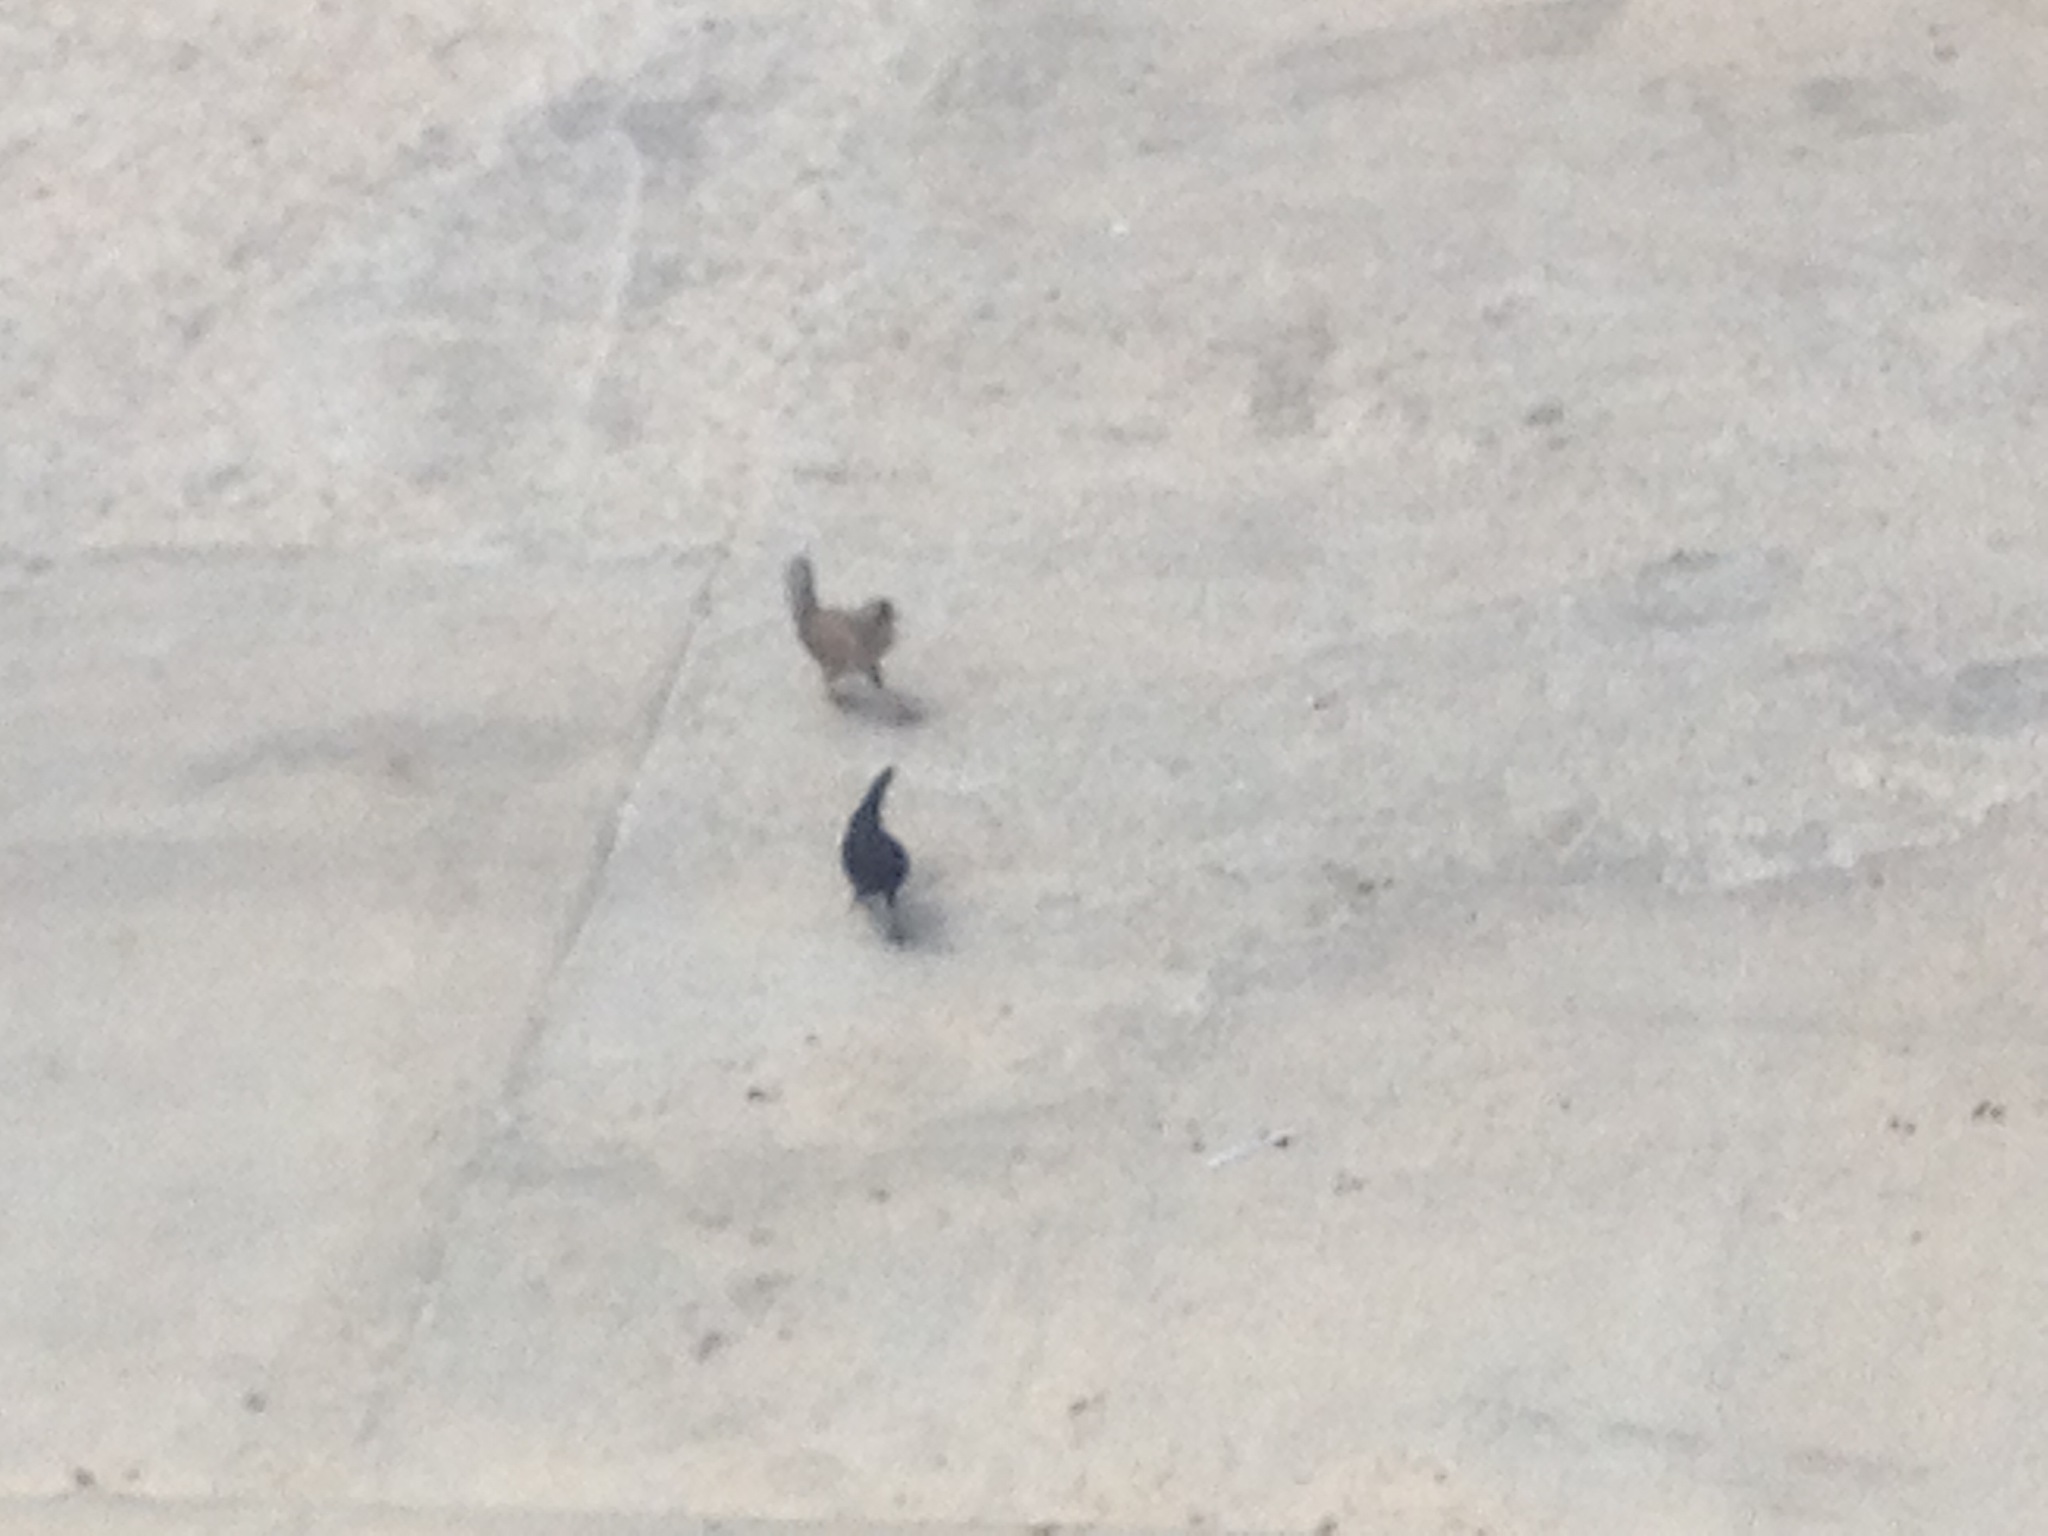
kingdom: Animalia
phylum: Chordata
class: Aves
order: Galliformes
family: Phasianidae
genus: Gallus
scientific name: Gallus gallus
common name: Red junglefowl
